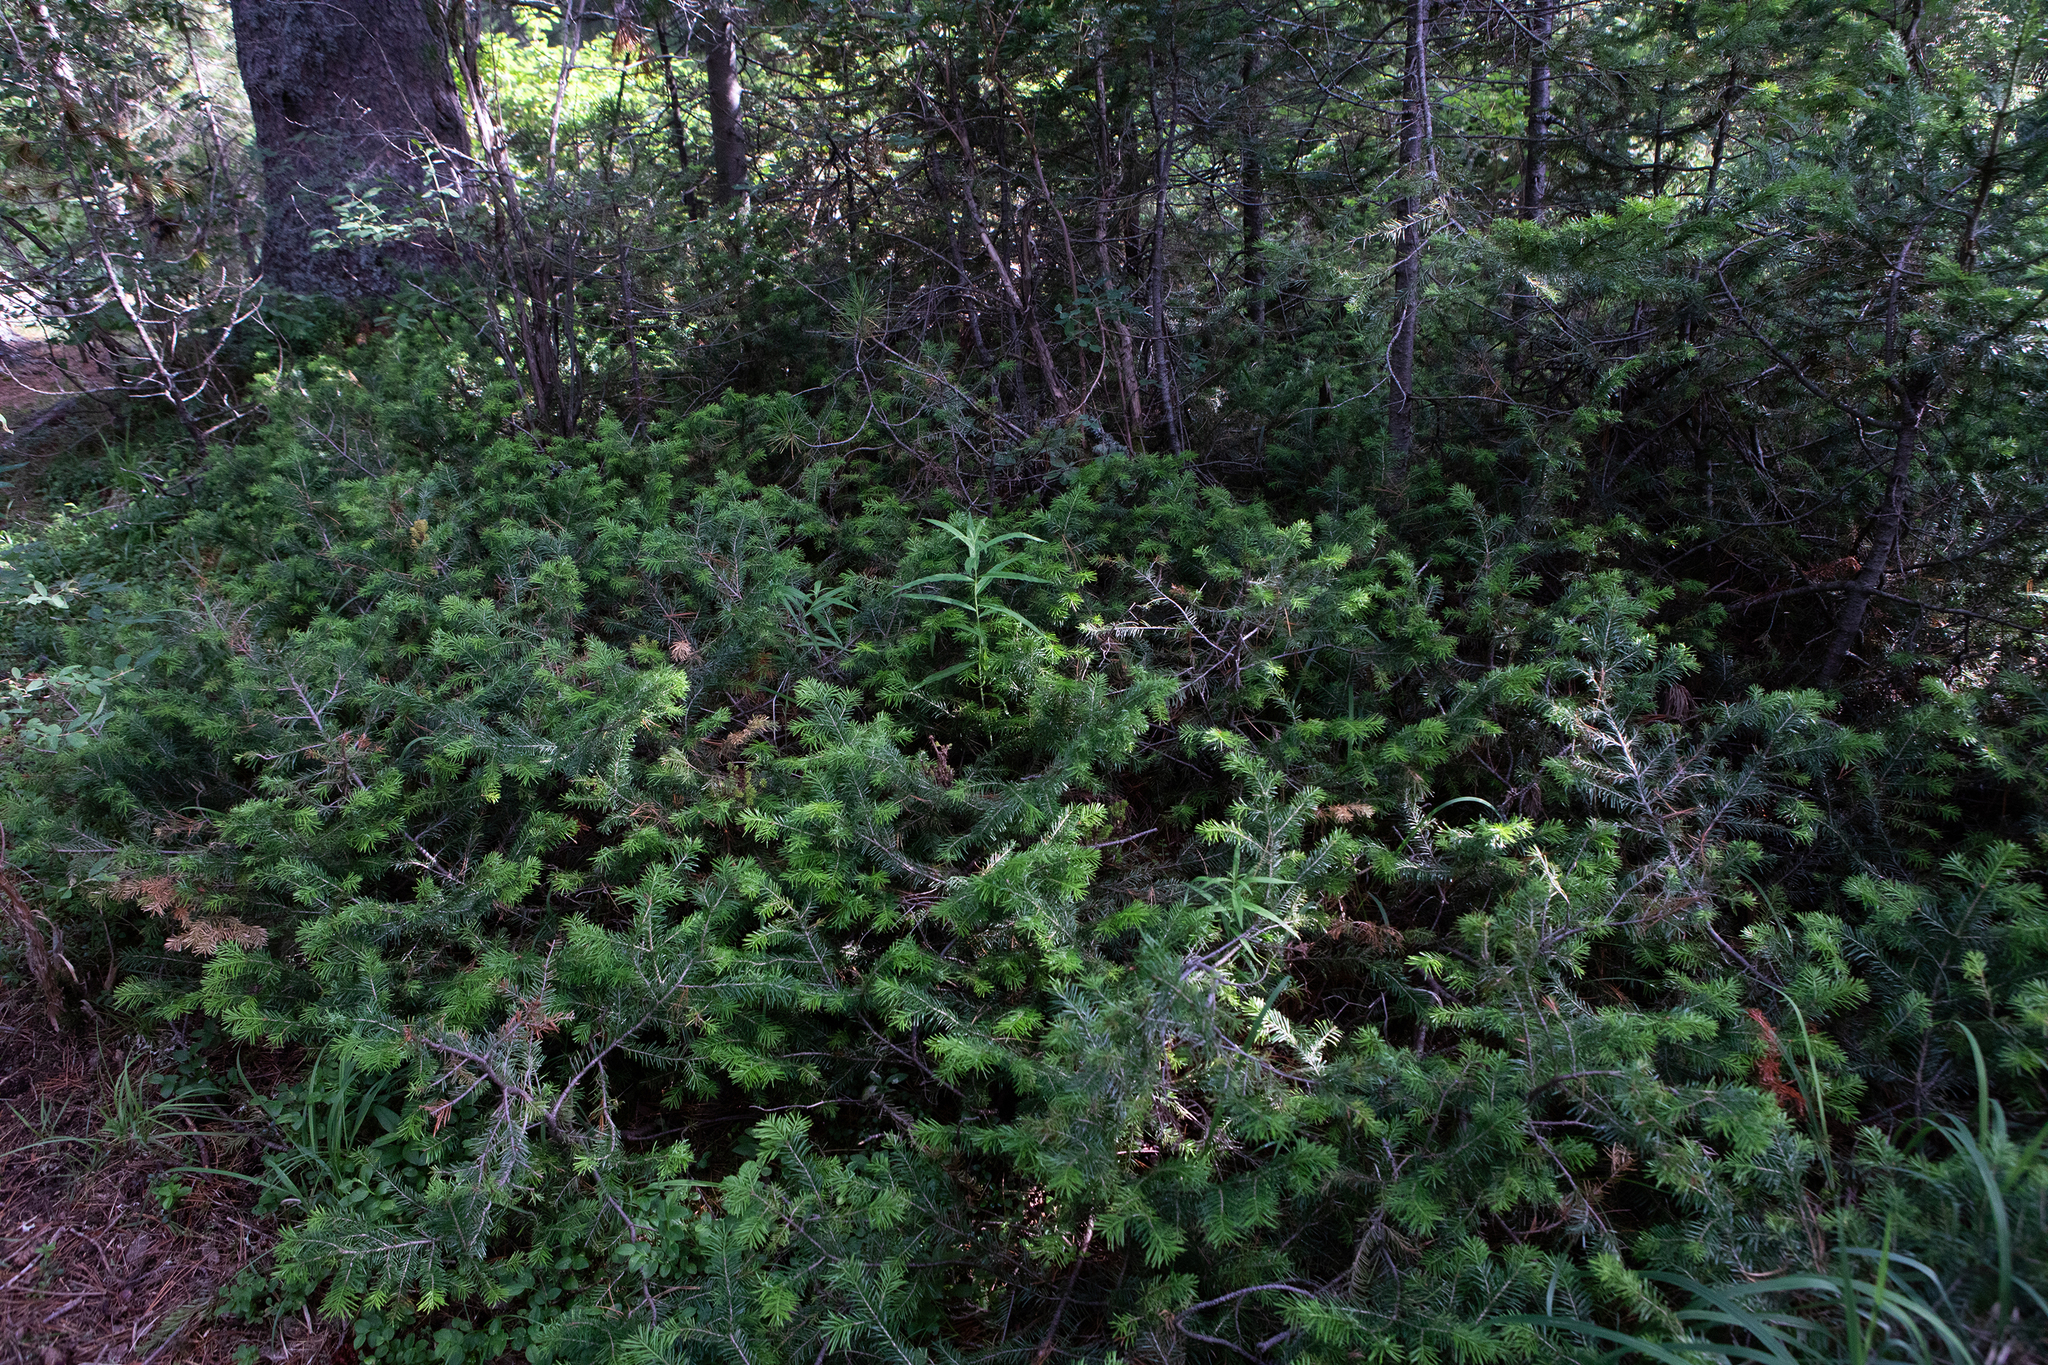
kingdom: Plantae
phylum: Tracheophyta
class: Pinopsida
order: Pinales
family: Pinaceae
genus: Abies
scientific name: Abies sibirica
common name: Siberian fir
